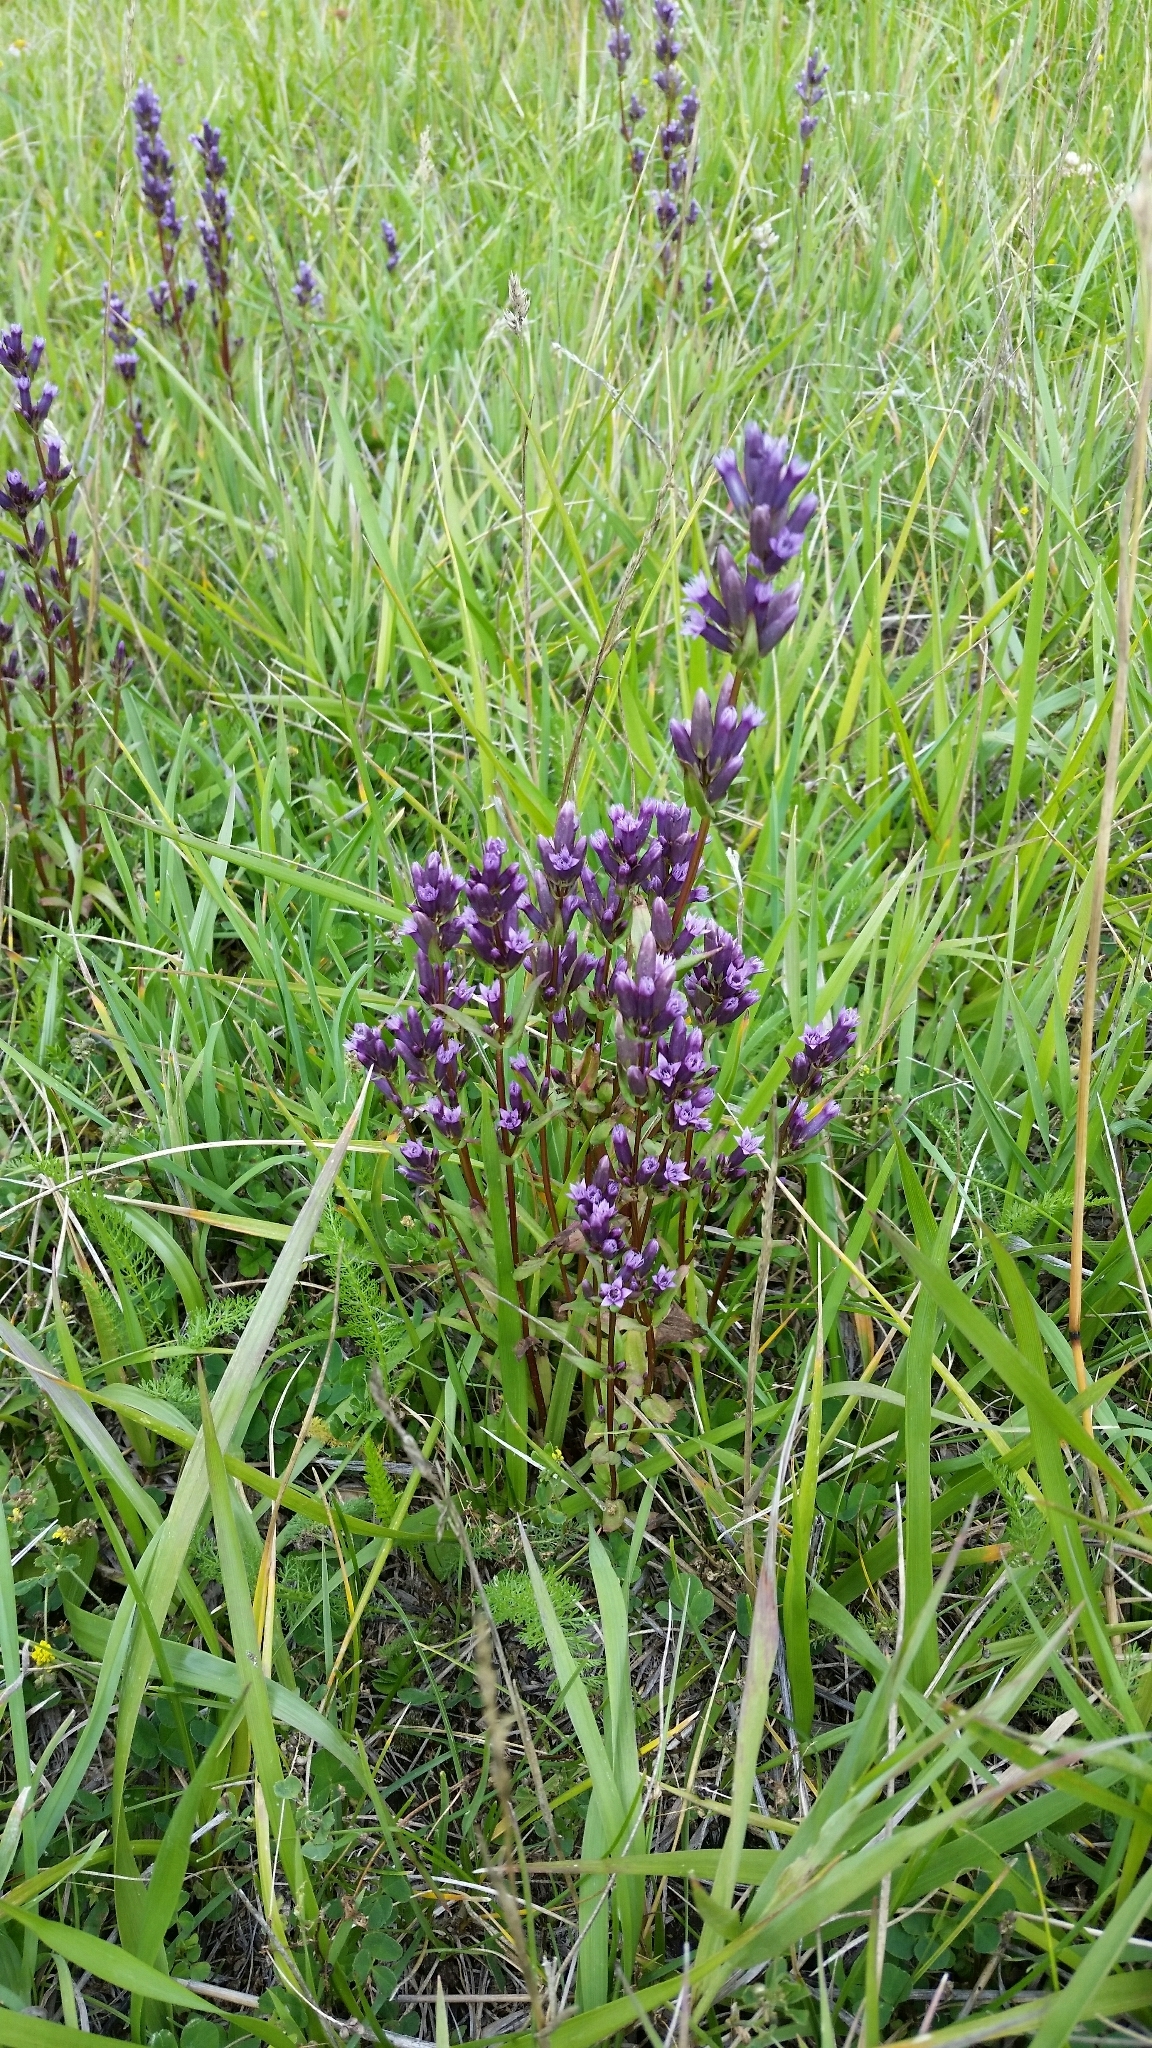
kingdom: Plantae
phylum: Tracheophyta
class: Magnoliopsida
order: Gentianales
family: Gentianaceae
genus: Gentianella
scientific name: Gentianella amarella
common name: Autumn gentian
